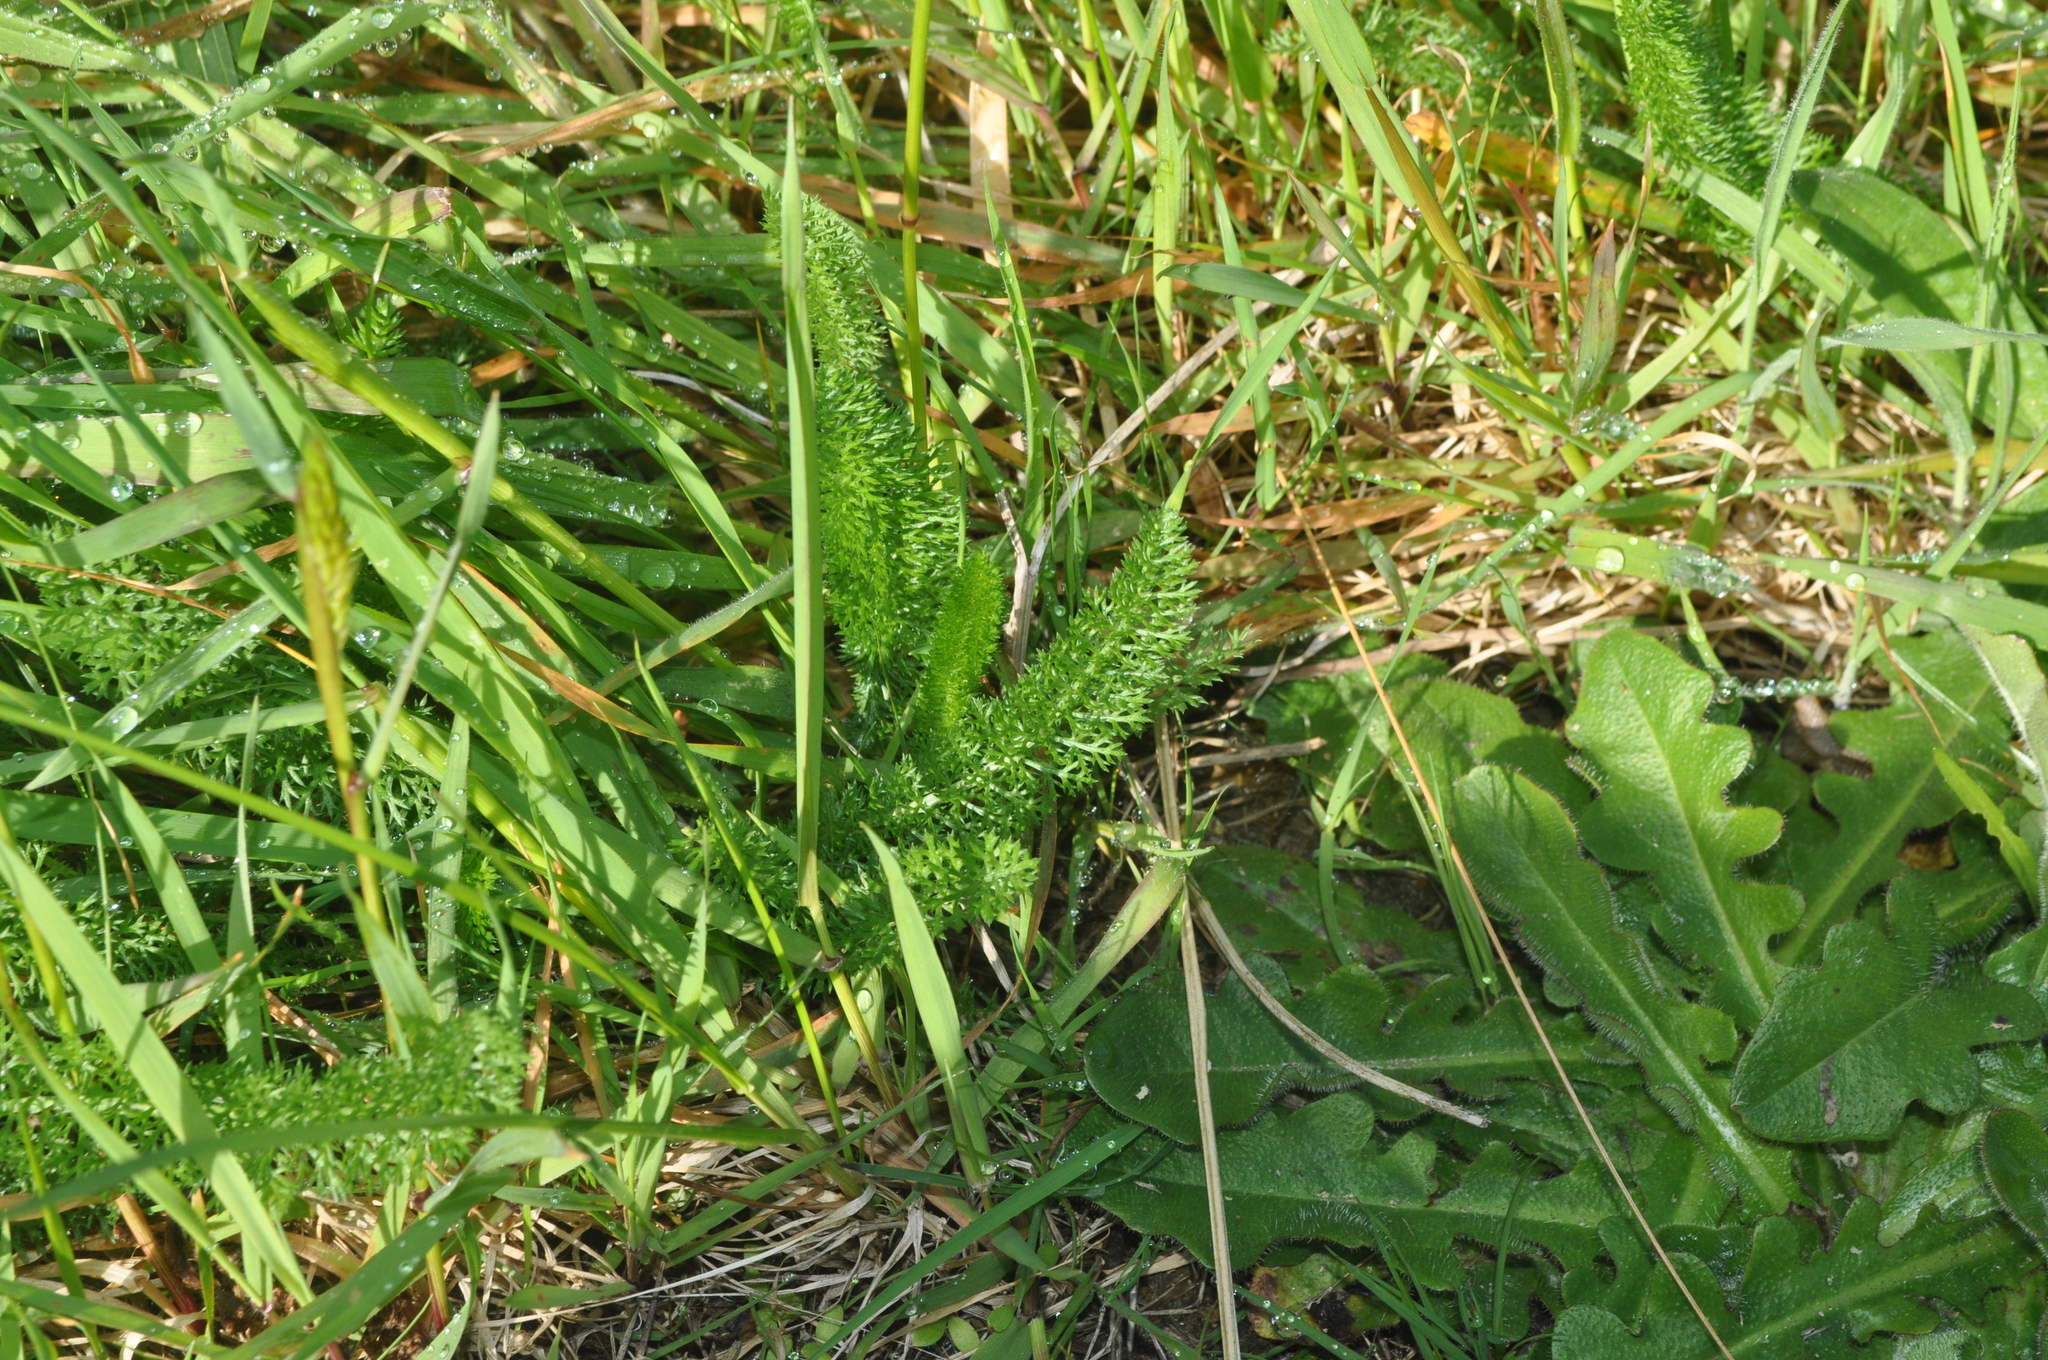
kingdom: Plantae
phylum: Tracheophyta
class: Magnoliopsida
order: Asterales
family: Asteraceae
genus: Achillea
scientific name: Achillea millefolium
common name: Yarrow
